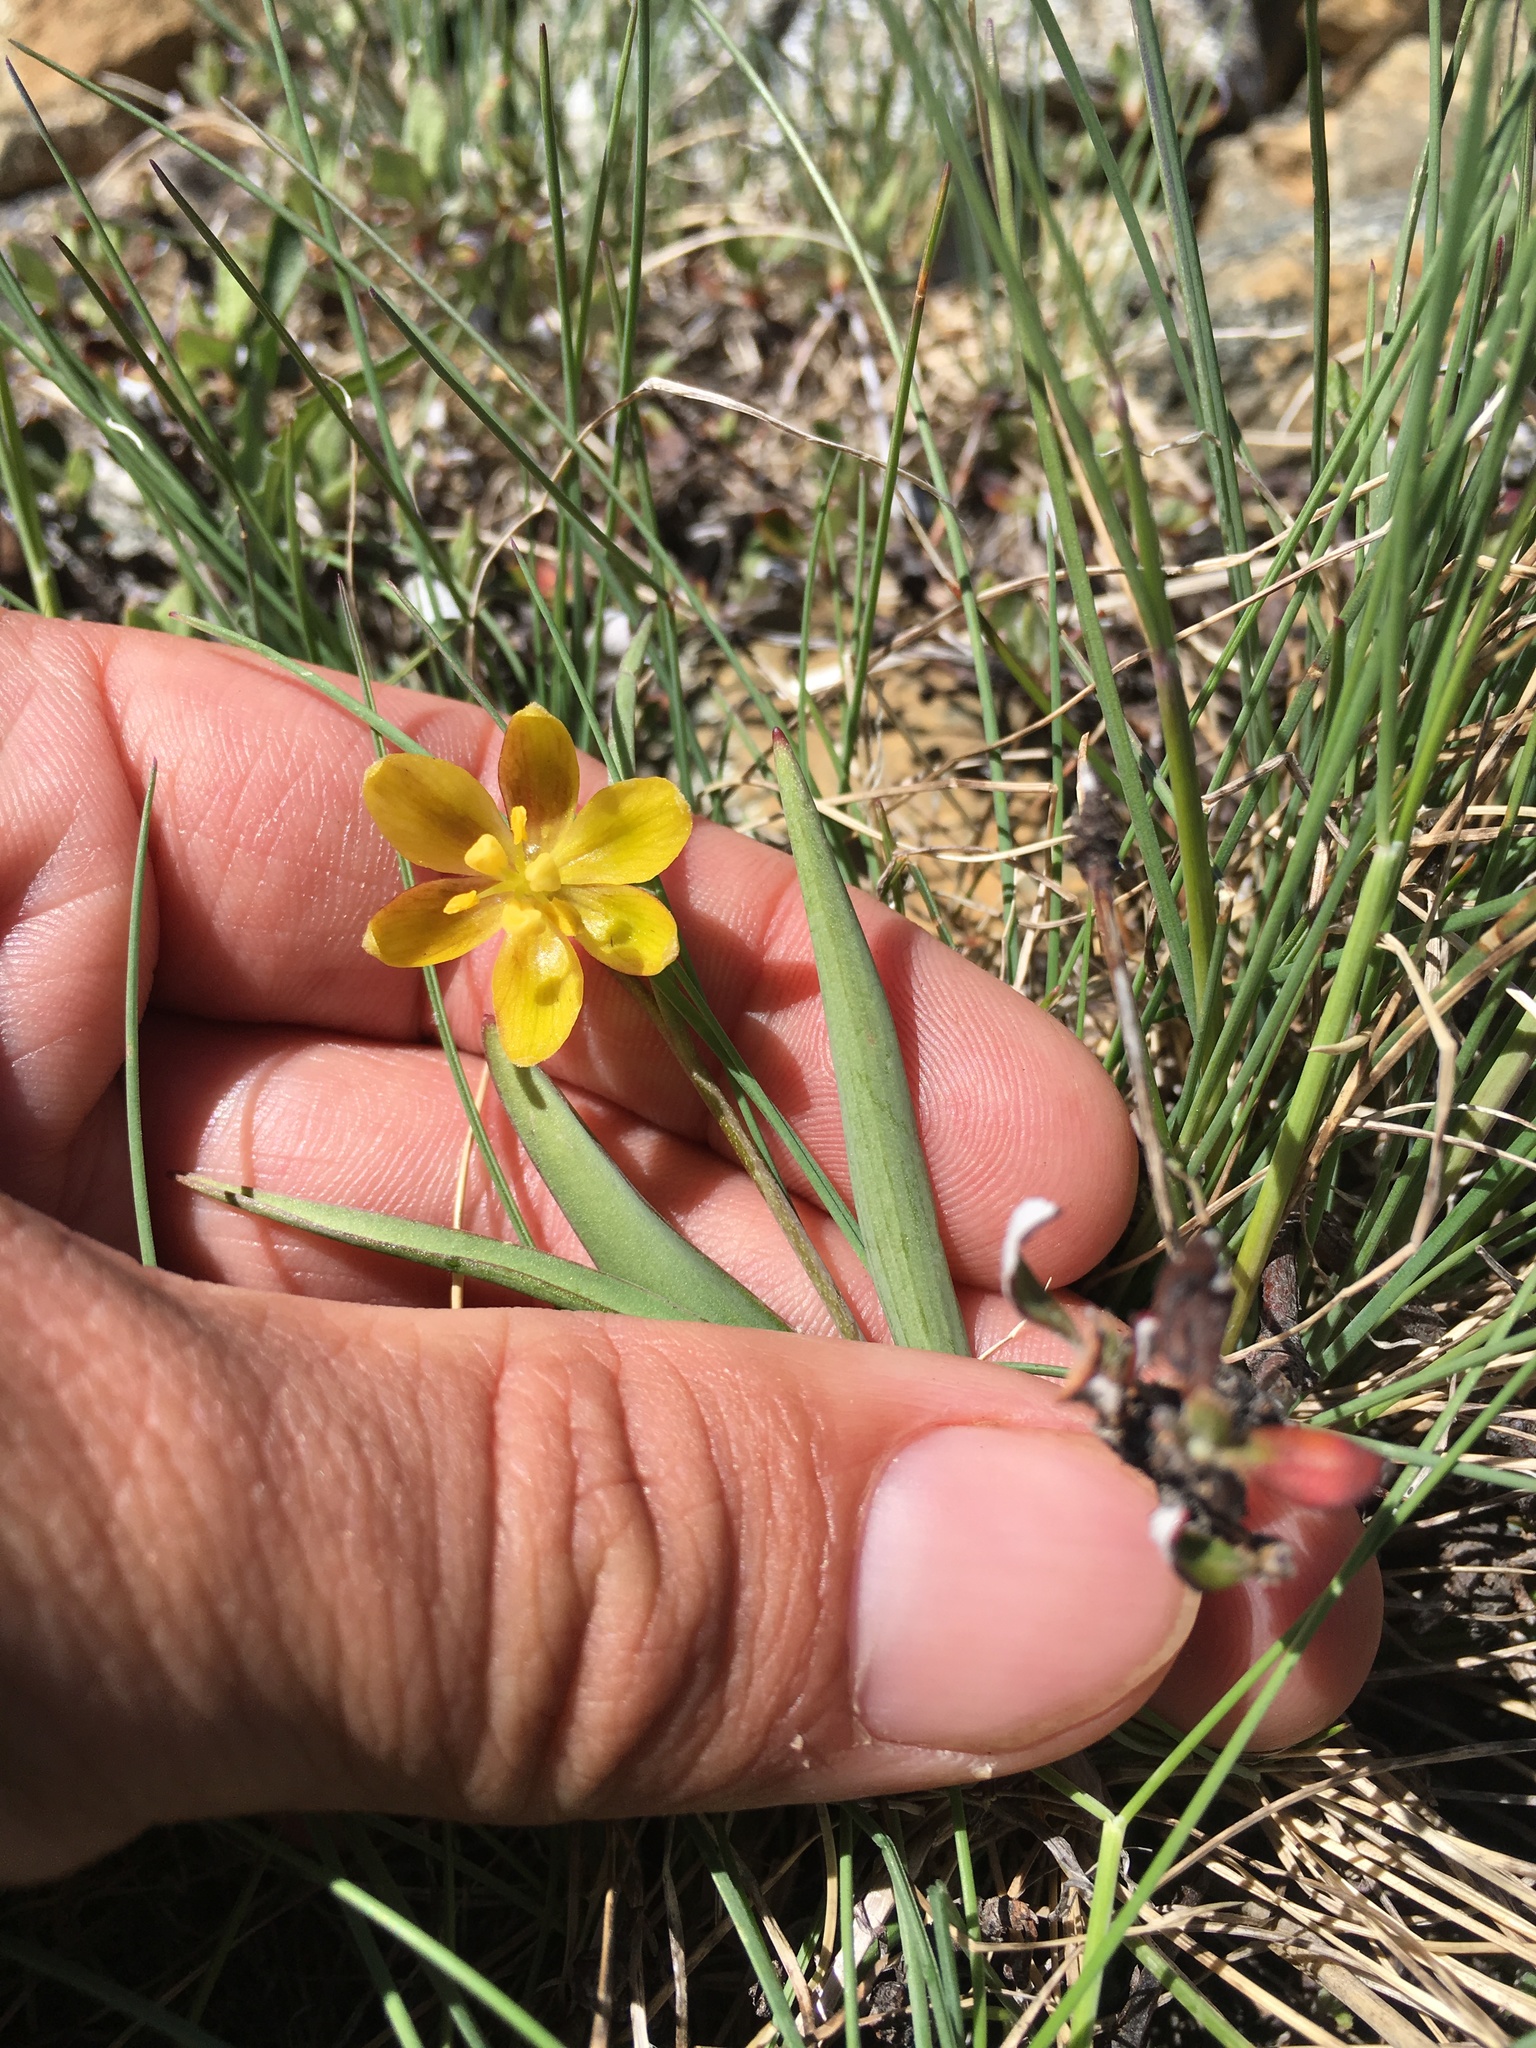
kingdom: Plantae
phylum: Tracheophyta
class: Liliopsida
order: Liliales
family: Liliaceae
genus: Fritillaria
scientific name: Fritillaria glauca
